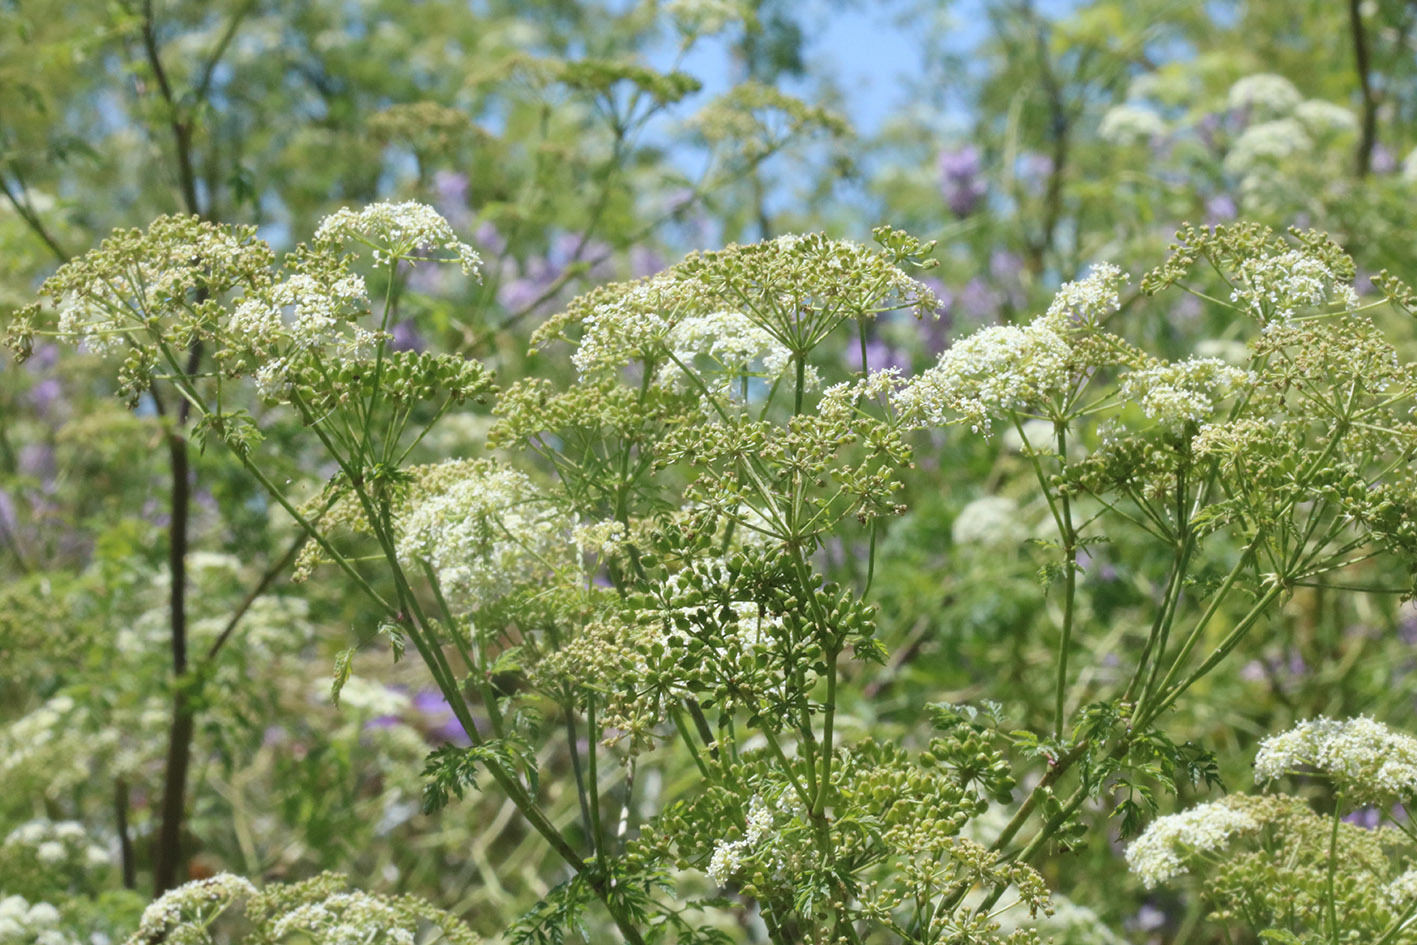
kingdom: Plantae
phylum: Tracheophyta
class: Magnoliopsida
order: Apiales
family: Apiaceae
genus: Conium
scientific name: Conium maculatum
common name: Hemlock
